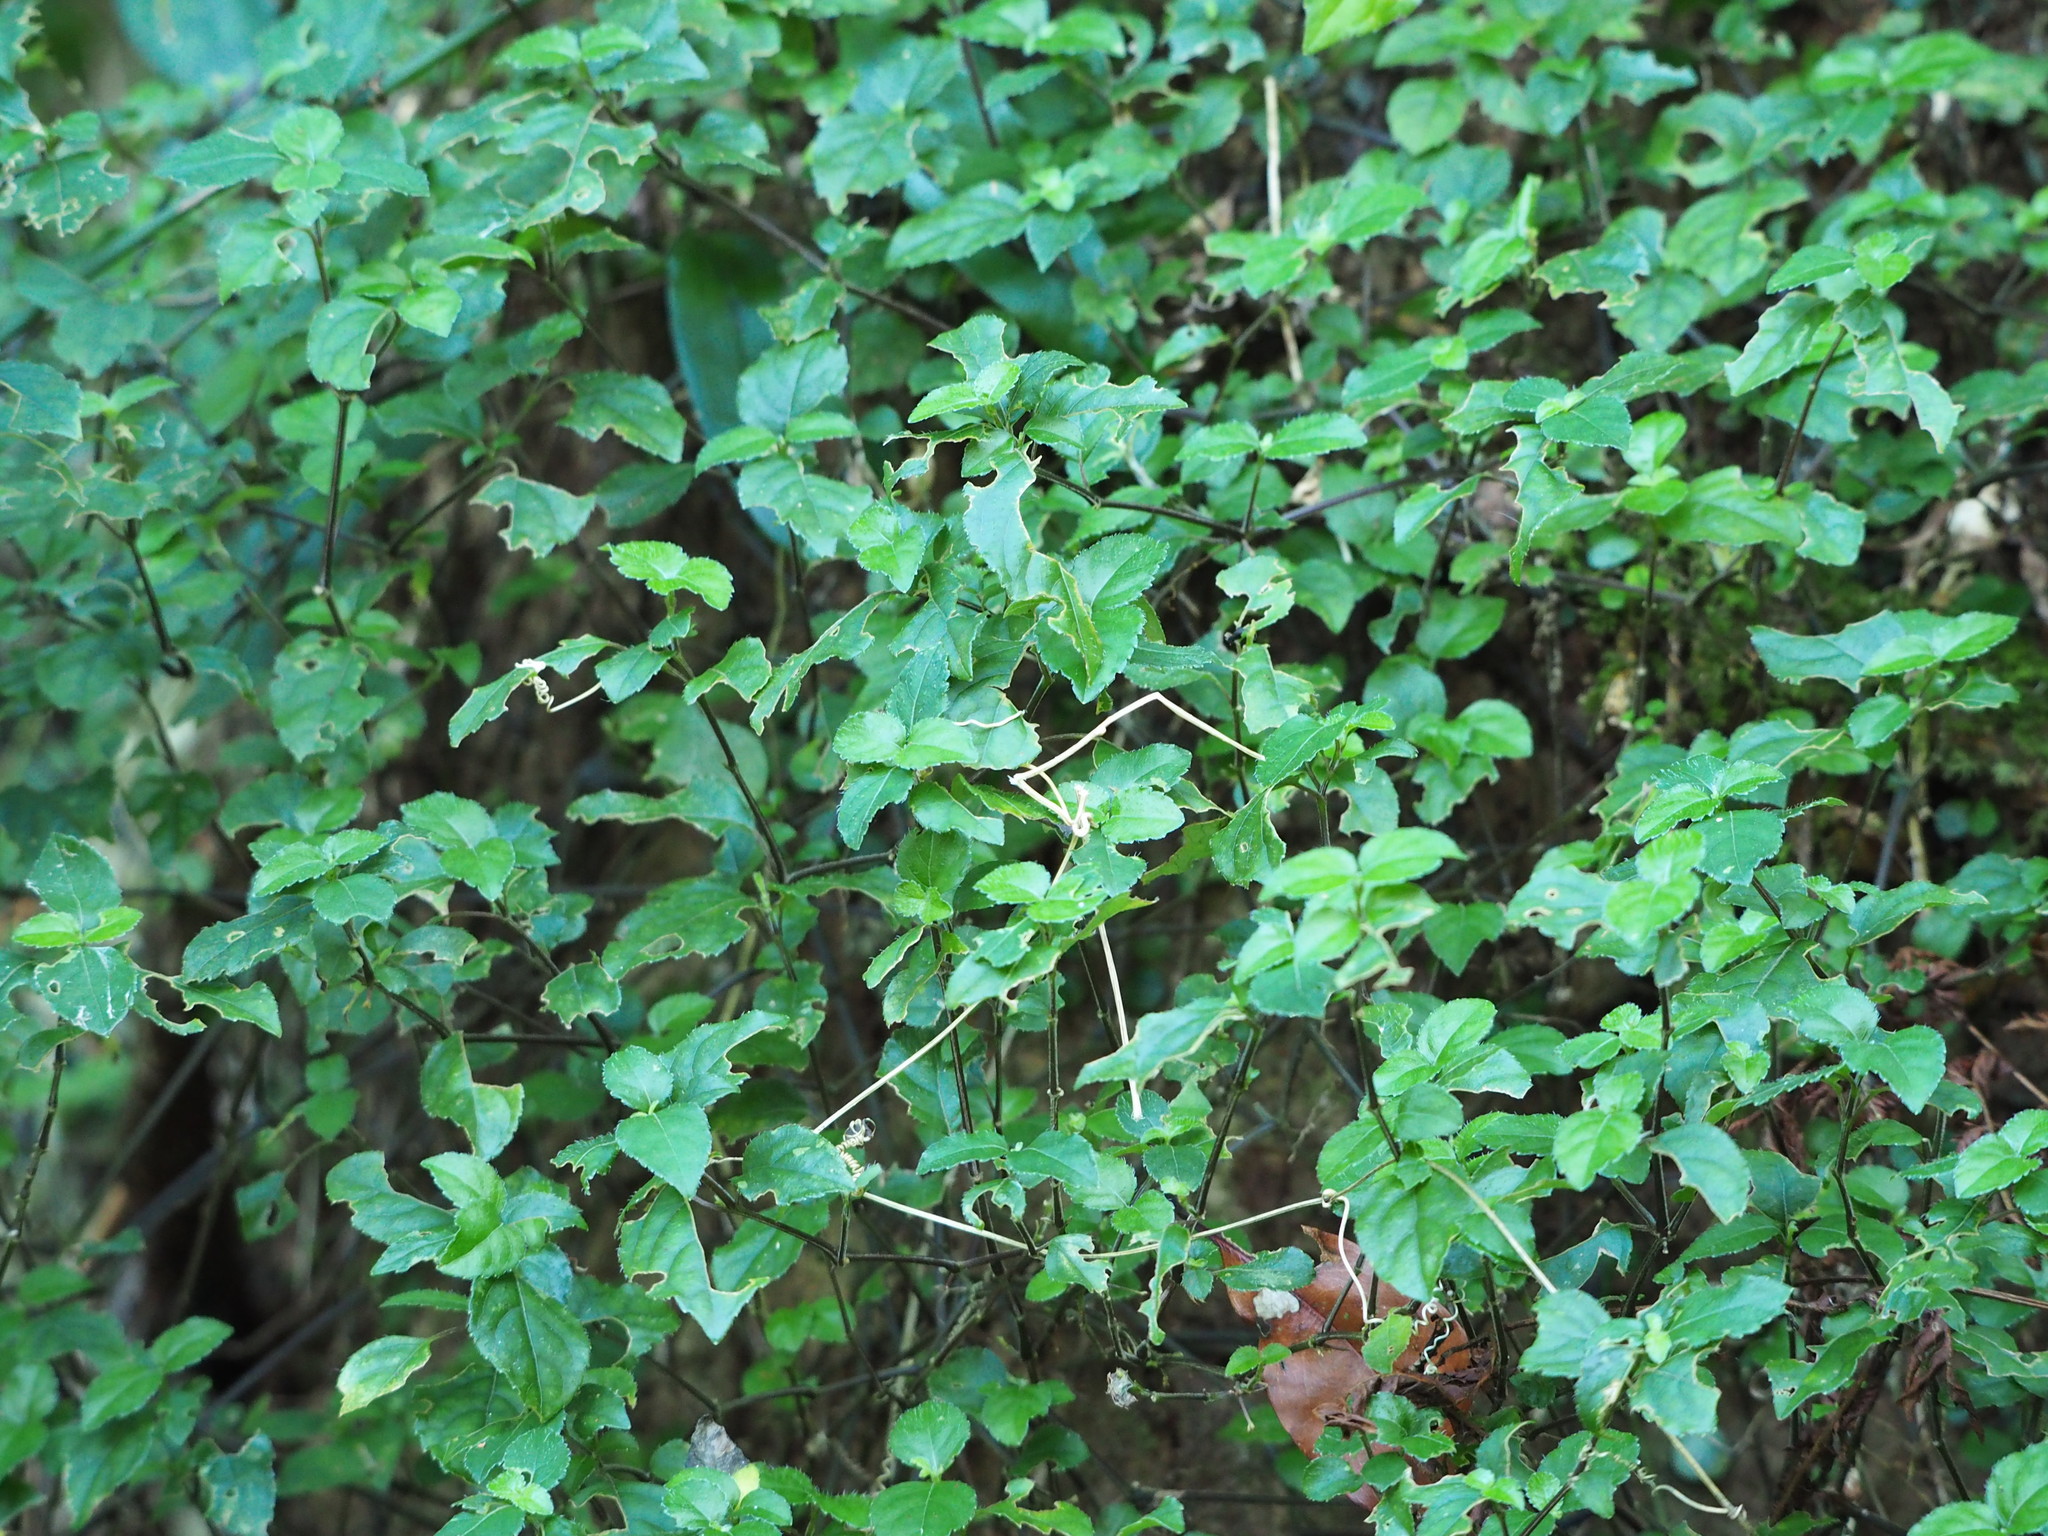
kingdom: Plantae
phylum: Tracheophyta
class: Magnoliopsida
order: Lamiales
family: Acanthaceae
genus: Strobilanthes
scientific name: Strobilanthes rankanensis
